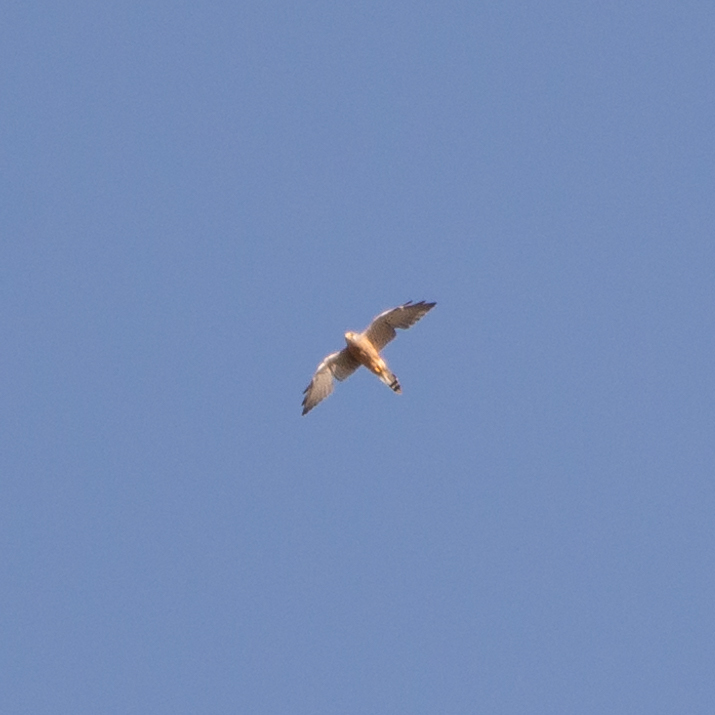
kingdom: Animalia
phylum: Chordata
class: Aves
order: Falconiformes
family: Falconidae
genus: Falco
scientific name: Falco tinnunculus
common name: Common kestrel
